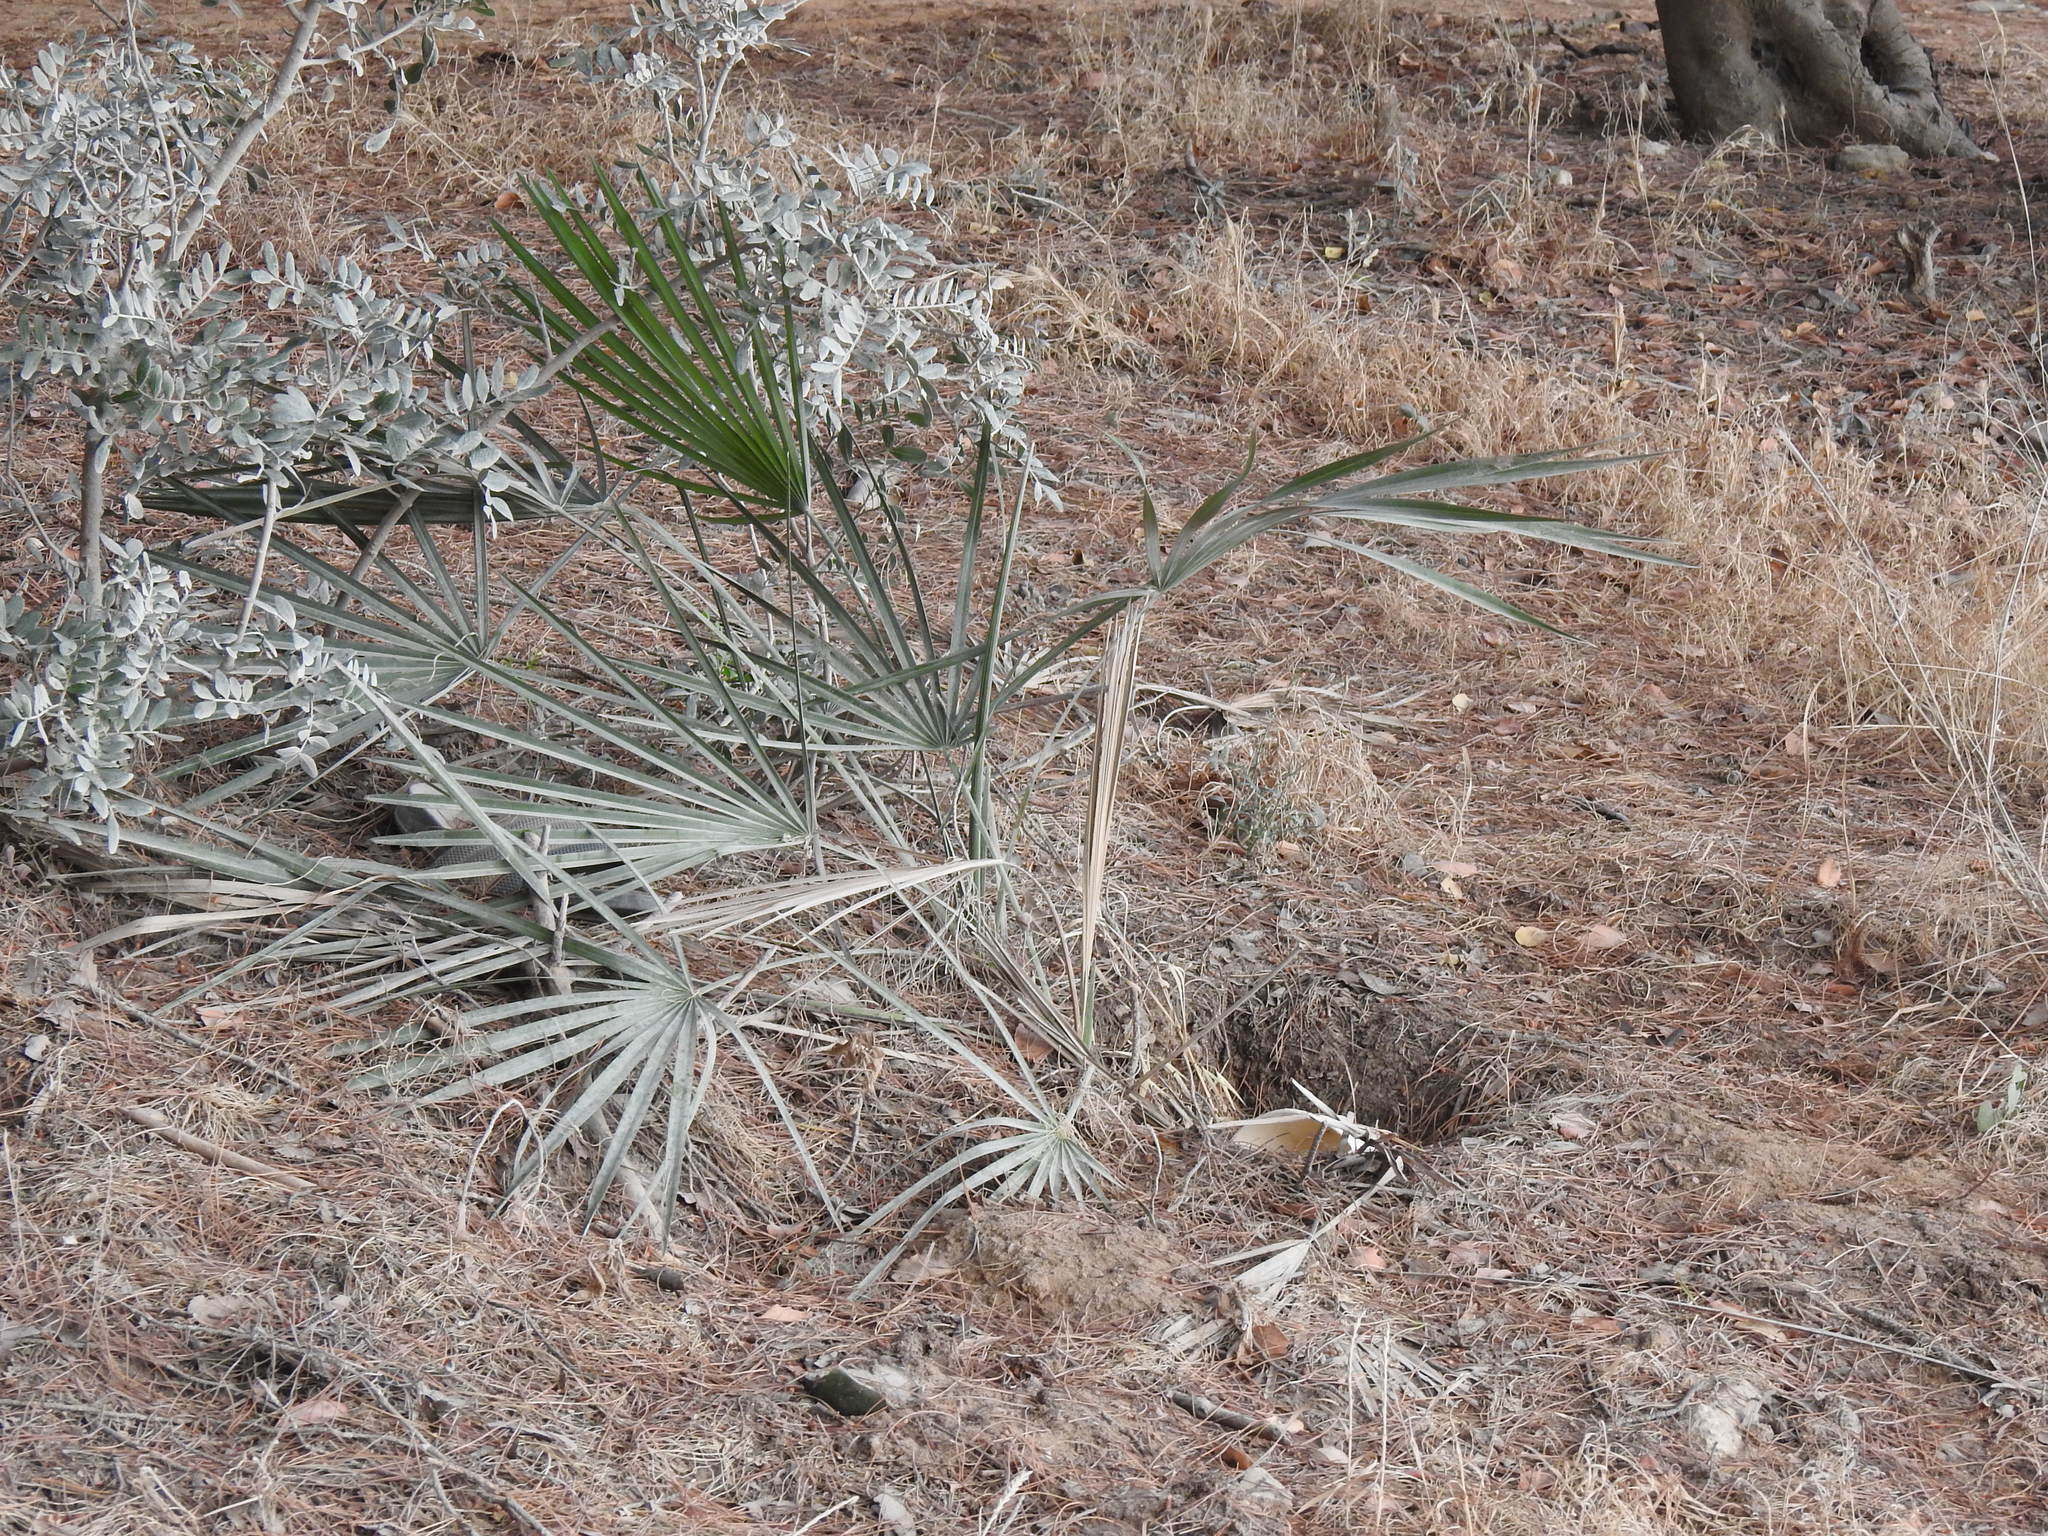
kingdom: Plantae
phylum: Tracheophyta
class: Liliopsida
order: Arecales
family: Arecaceae
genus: Chamaerops
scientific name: Chamaerops humilis
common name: Dwarf fan palm
